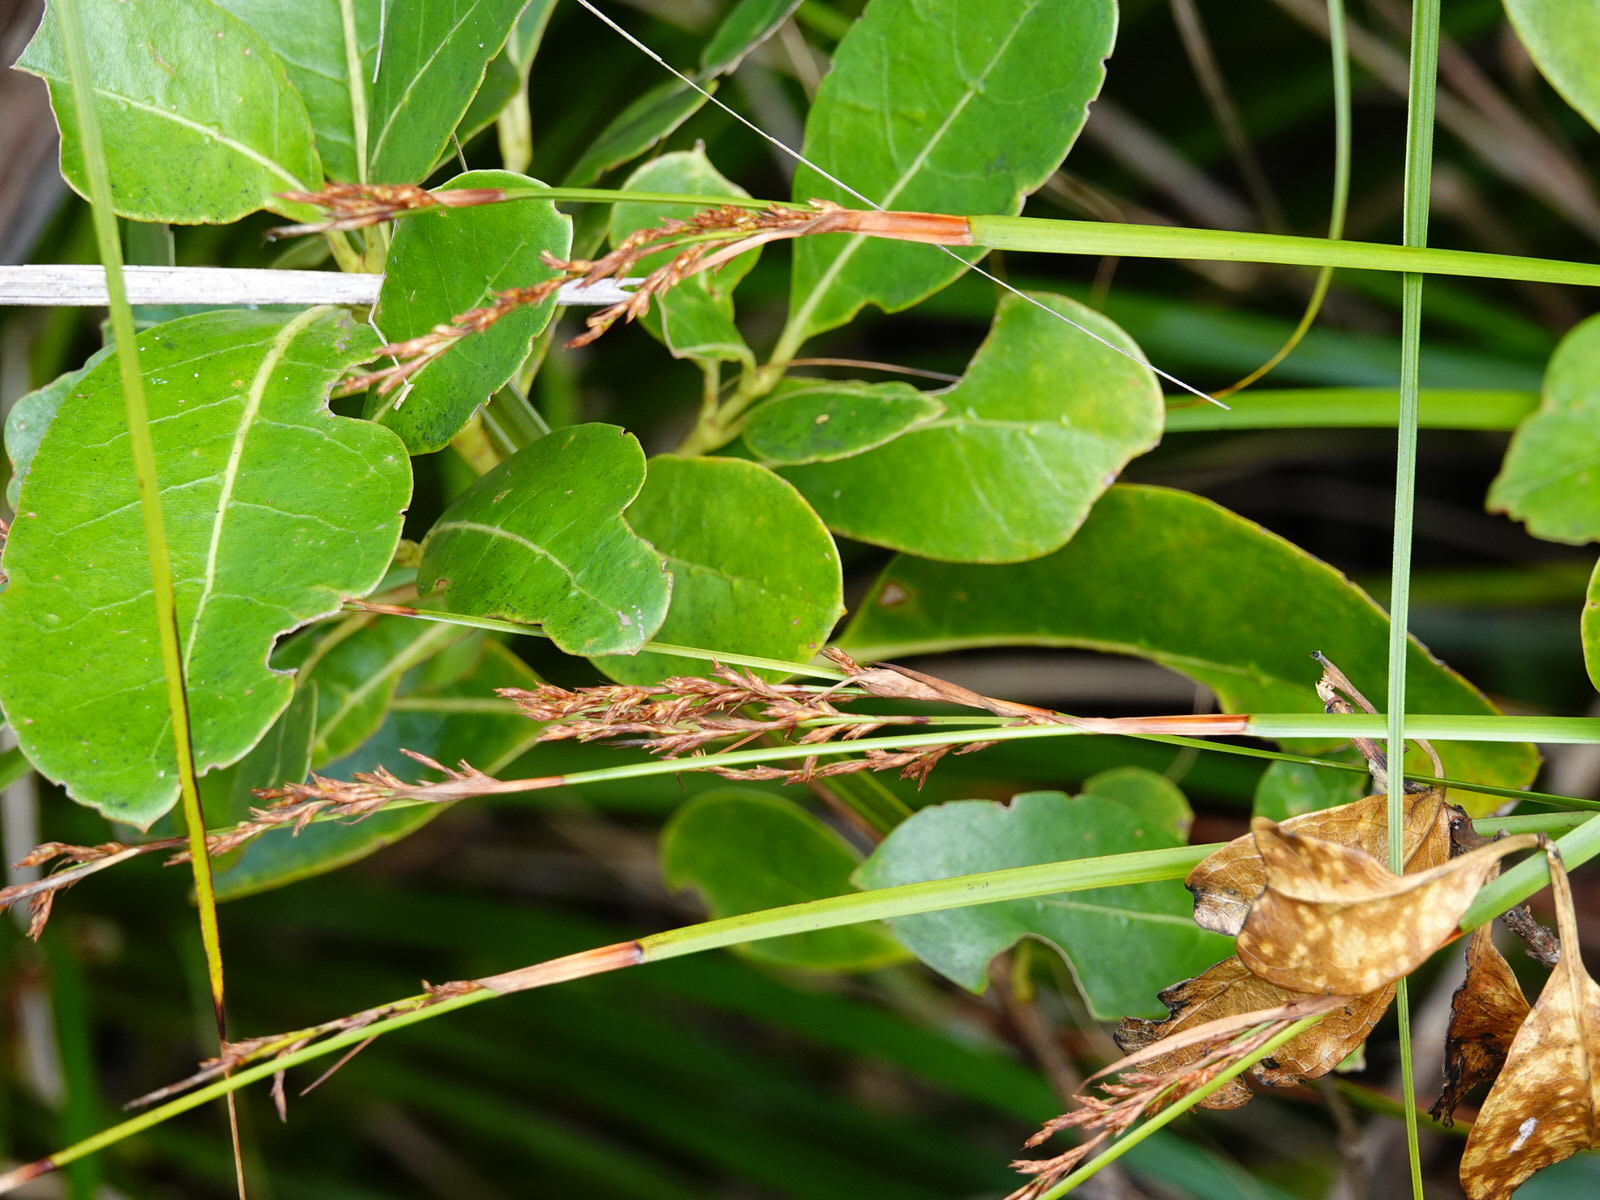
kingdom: Plantae
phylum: Tracheophyta
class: Liliopsida
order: Poales
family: Cyperaceae
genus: Lepidosperma
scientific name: Lepidosperma laterale
